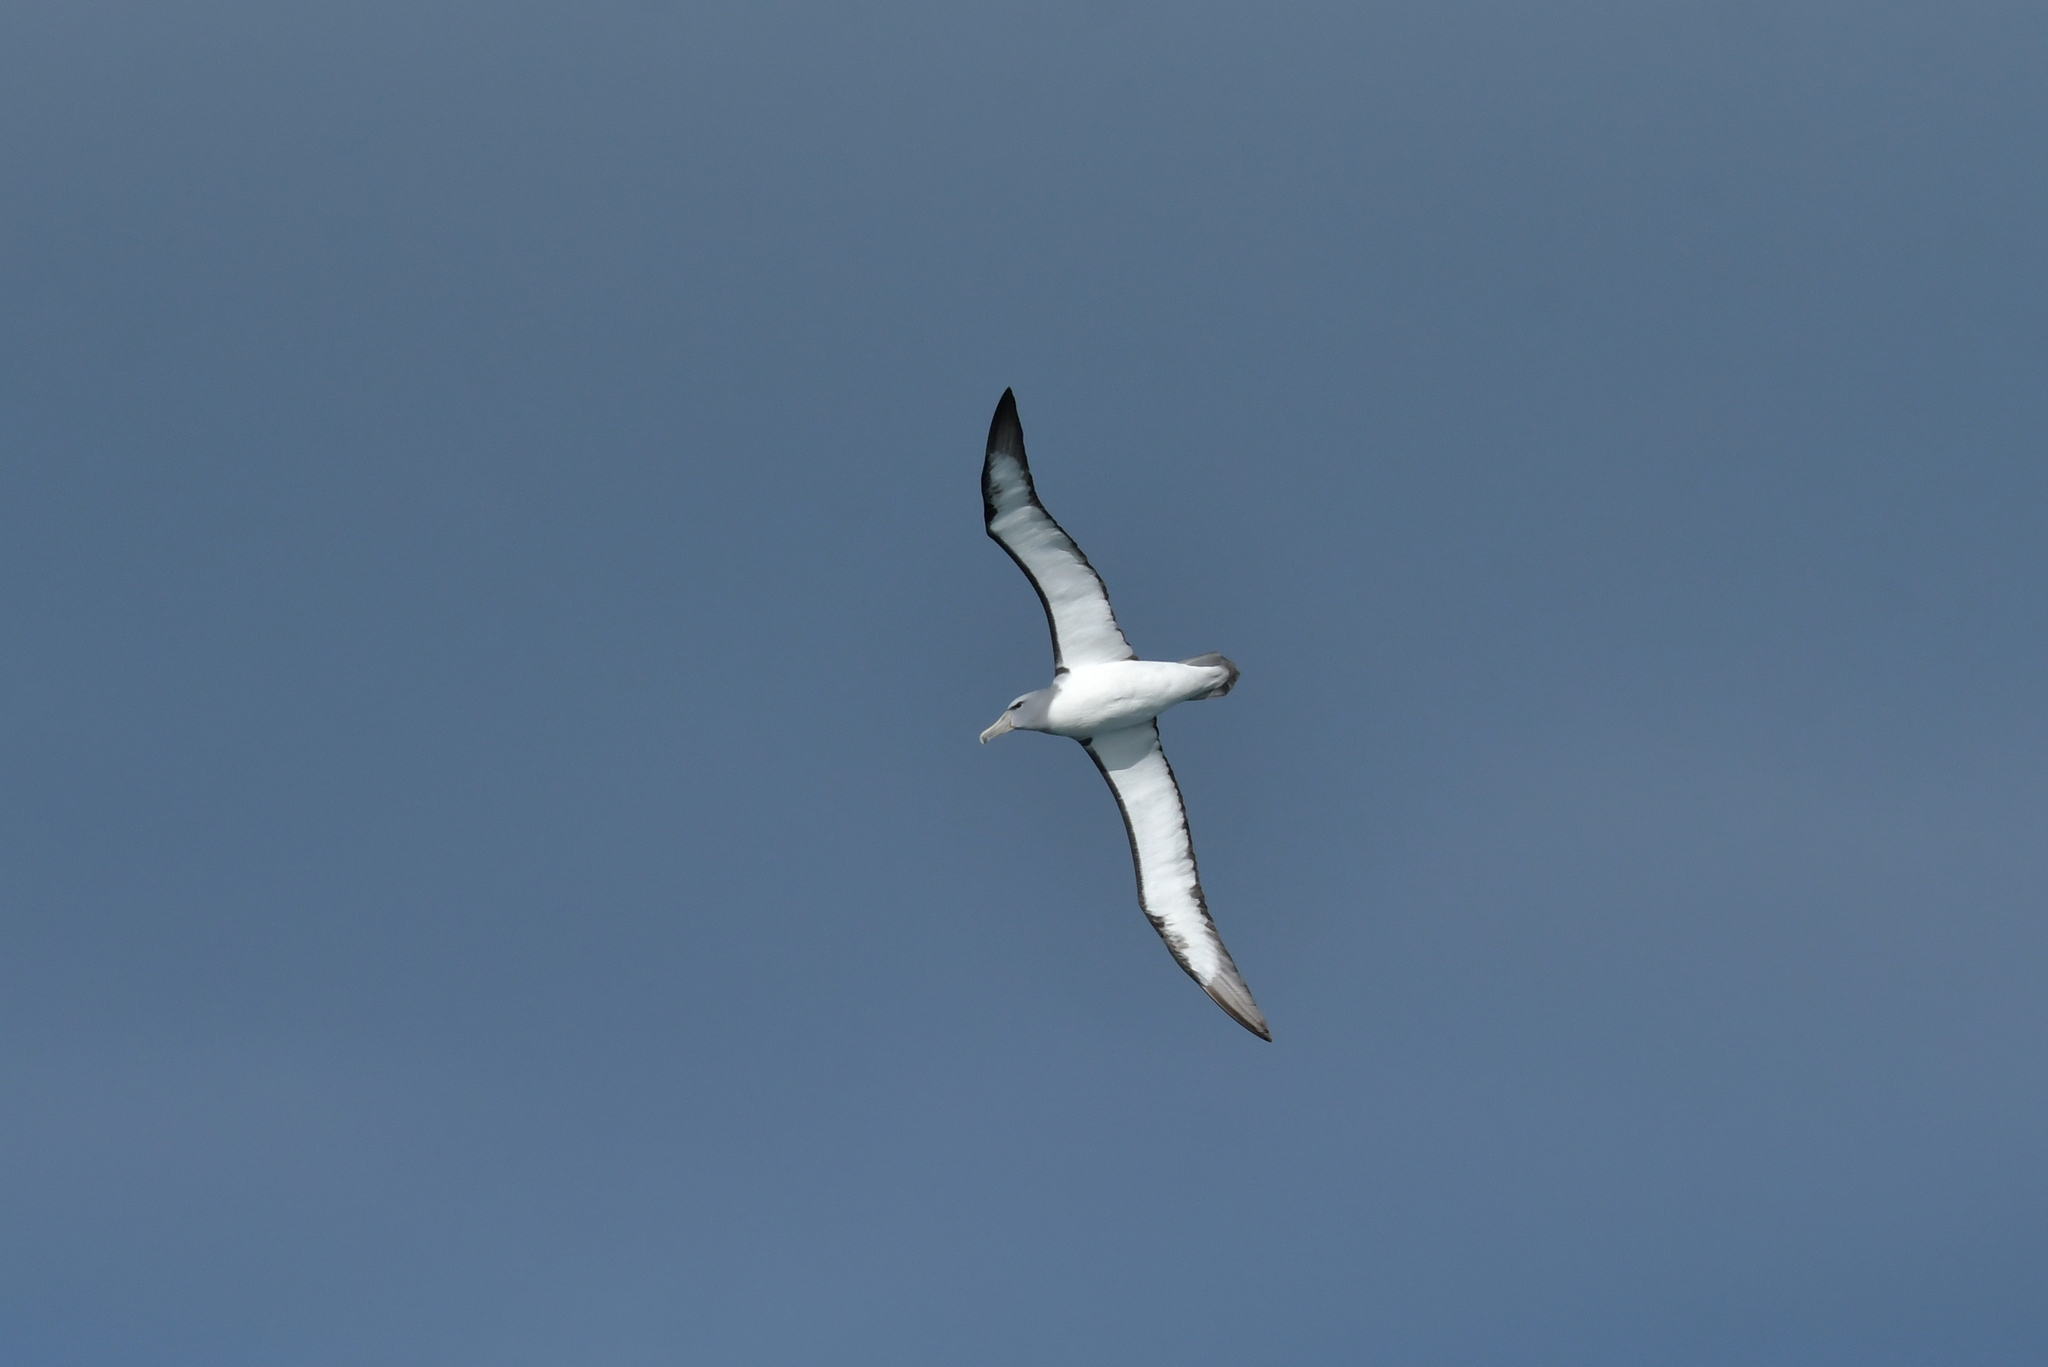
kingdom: Animalia
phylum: Chordata
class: Aves
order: Procellariiformes
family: Diomedeidae
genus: Thalassarche
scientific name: Thalassarche salvini
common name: Salvin's albatross
